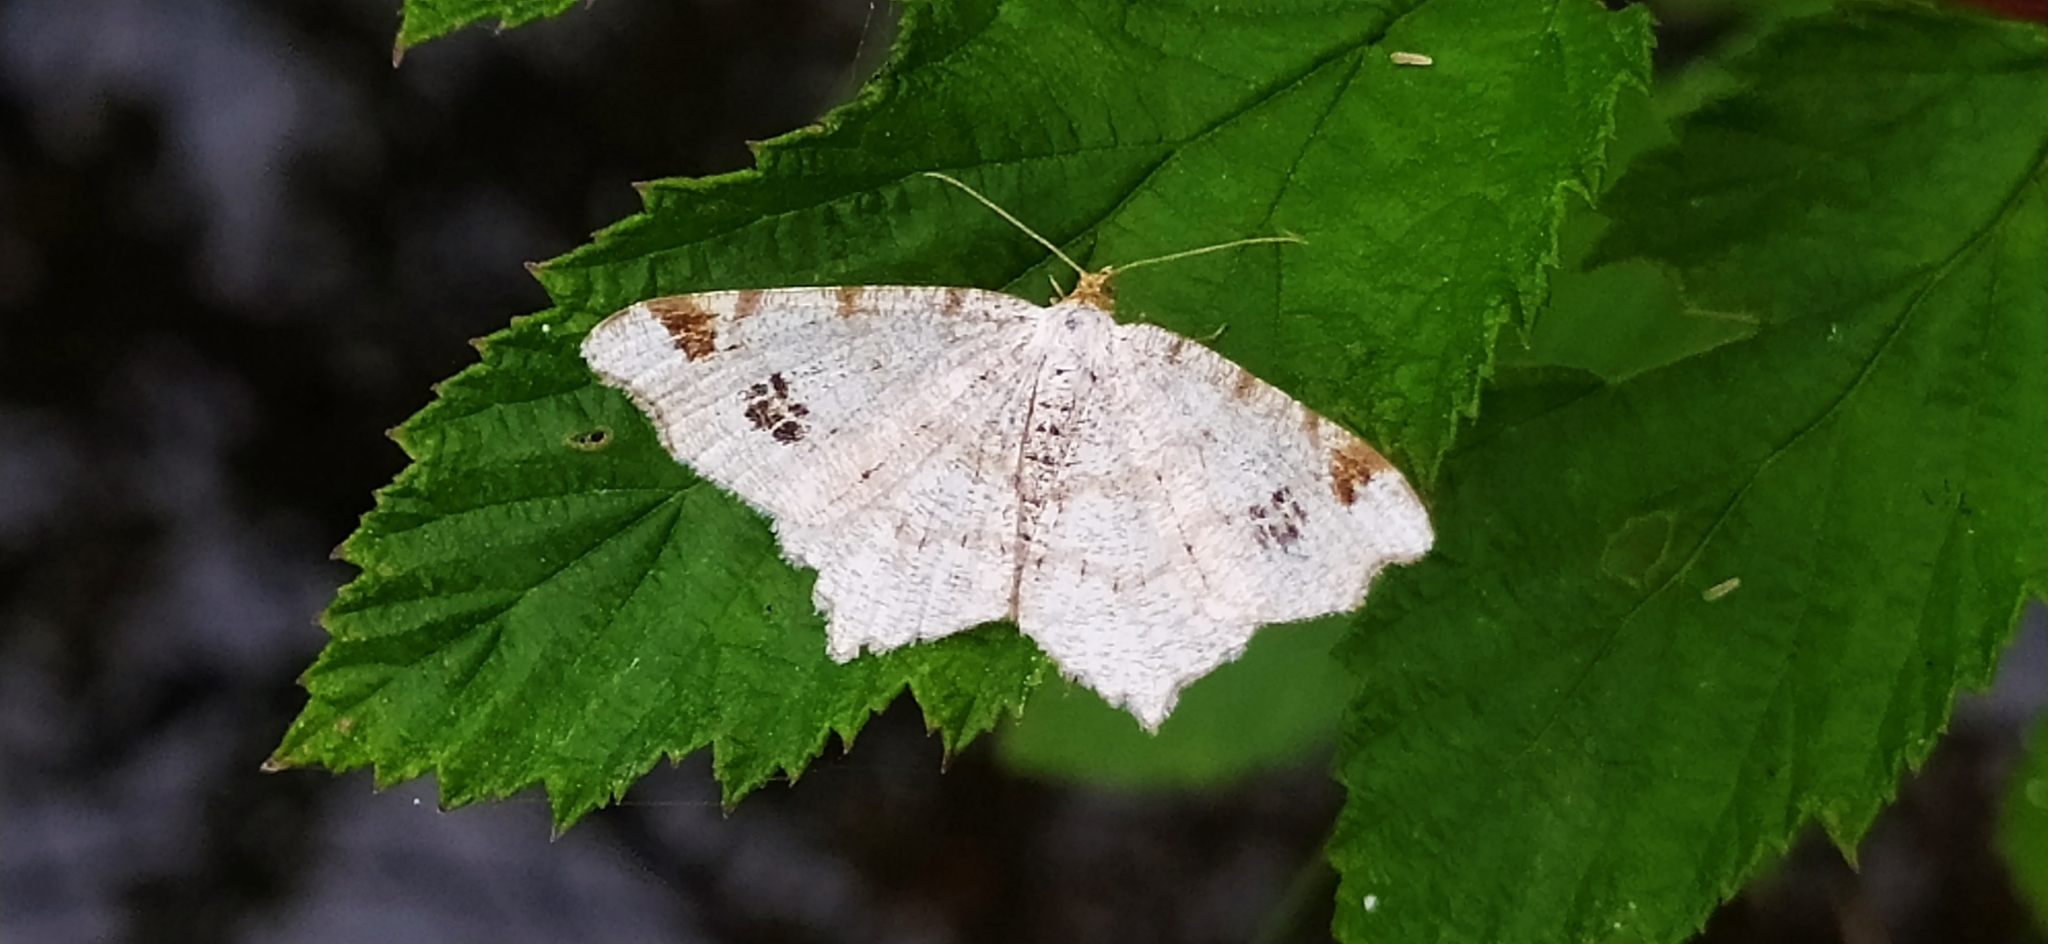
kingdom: Animalia
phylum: Arthropoda
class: Insecta
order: Lepidoptera
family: Geometridae
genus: Macaria
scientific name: Macaria notata
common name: Peacock moth
